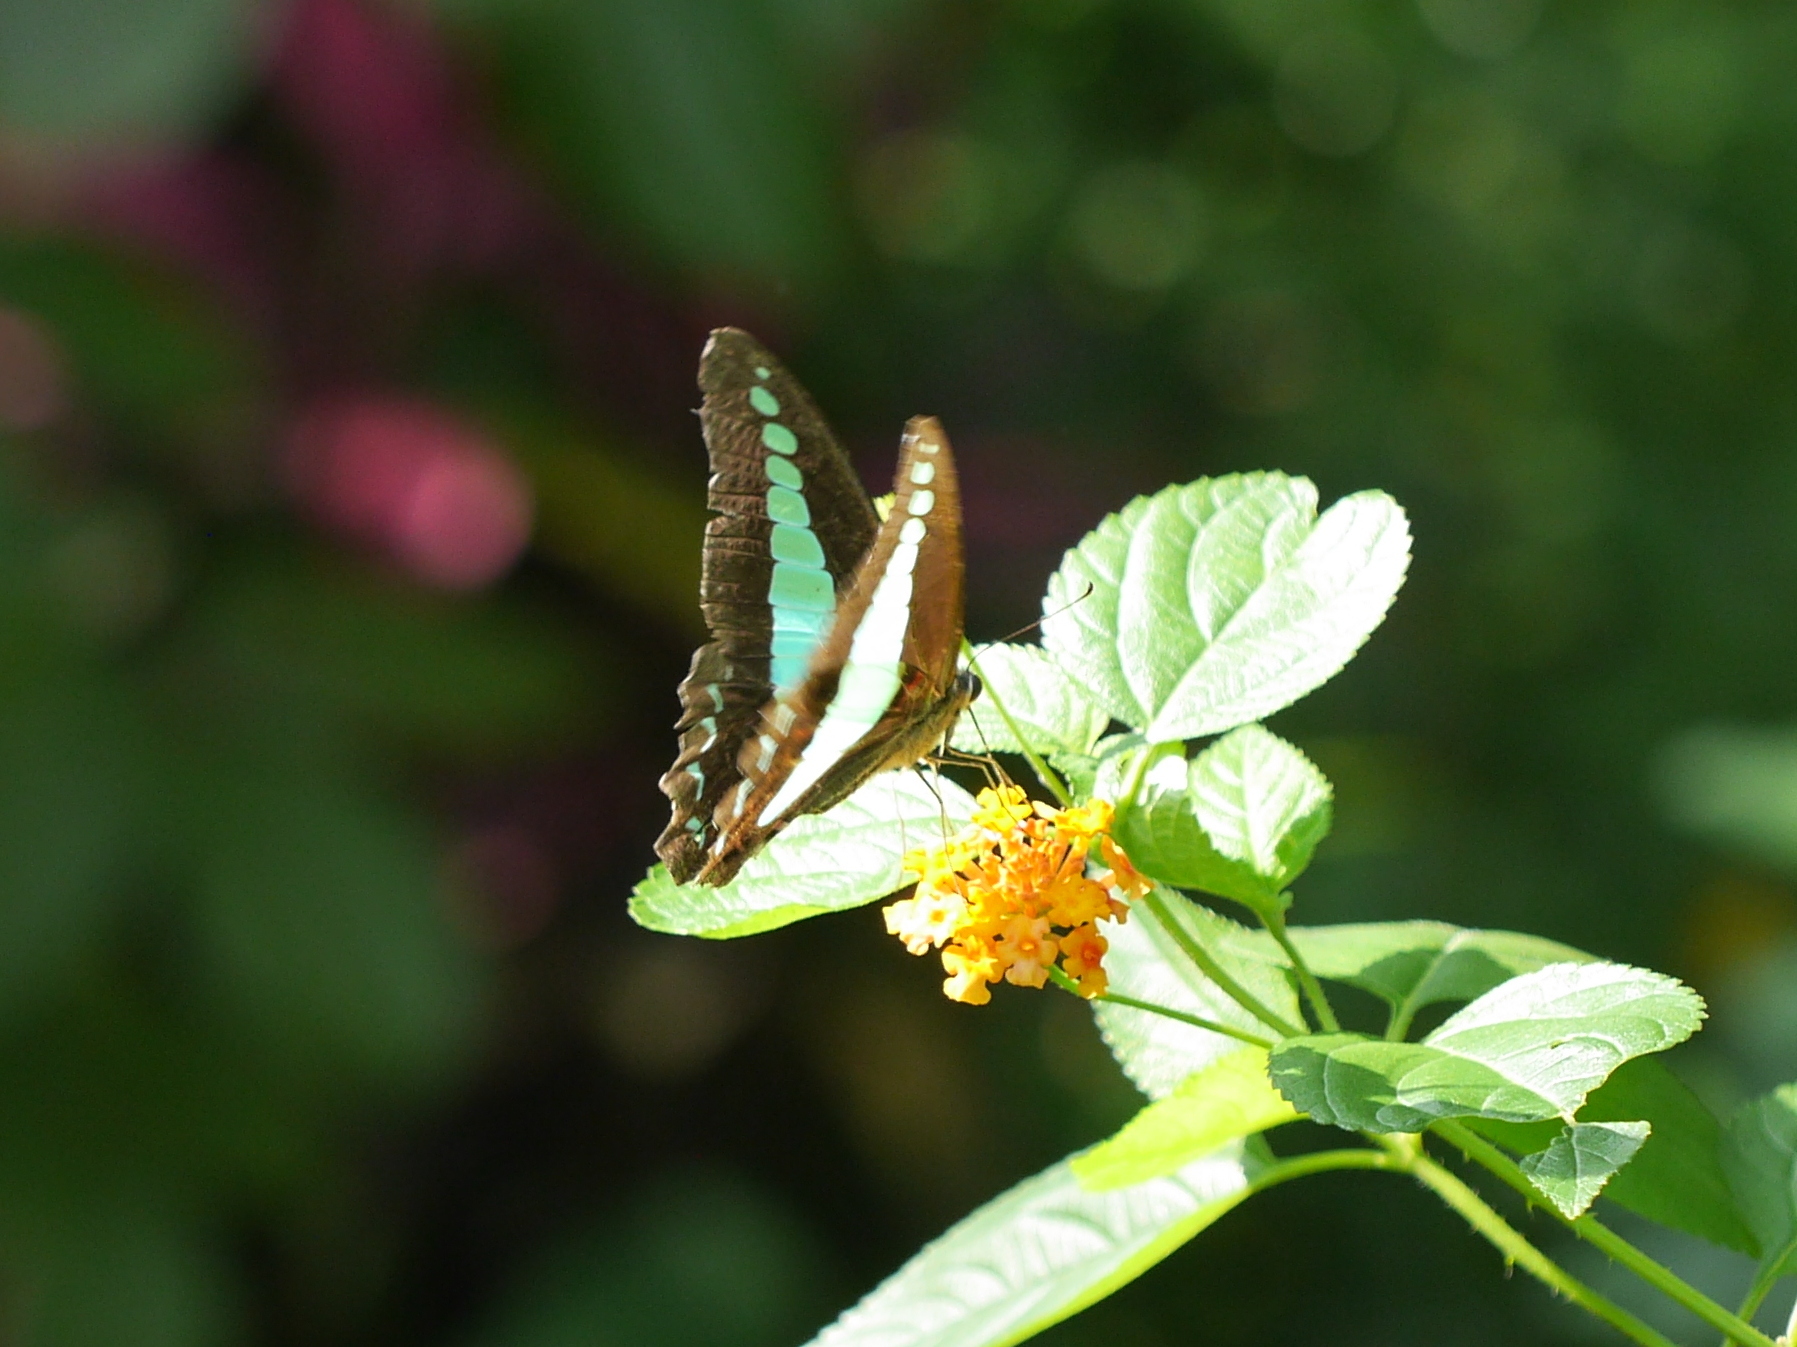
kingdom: Fungi
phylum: Ascomycota
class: Sordariomycetes
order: Microascales
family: Microascaceae
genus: Graphium
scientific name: Graphium sarpedon
